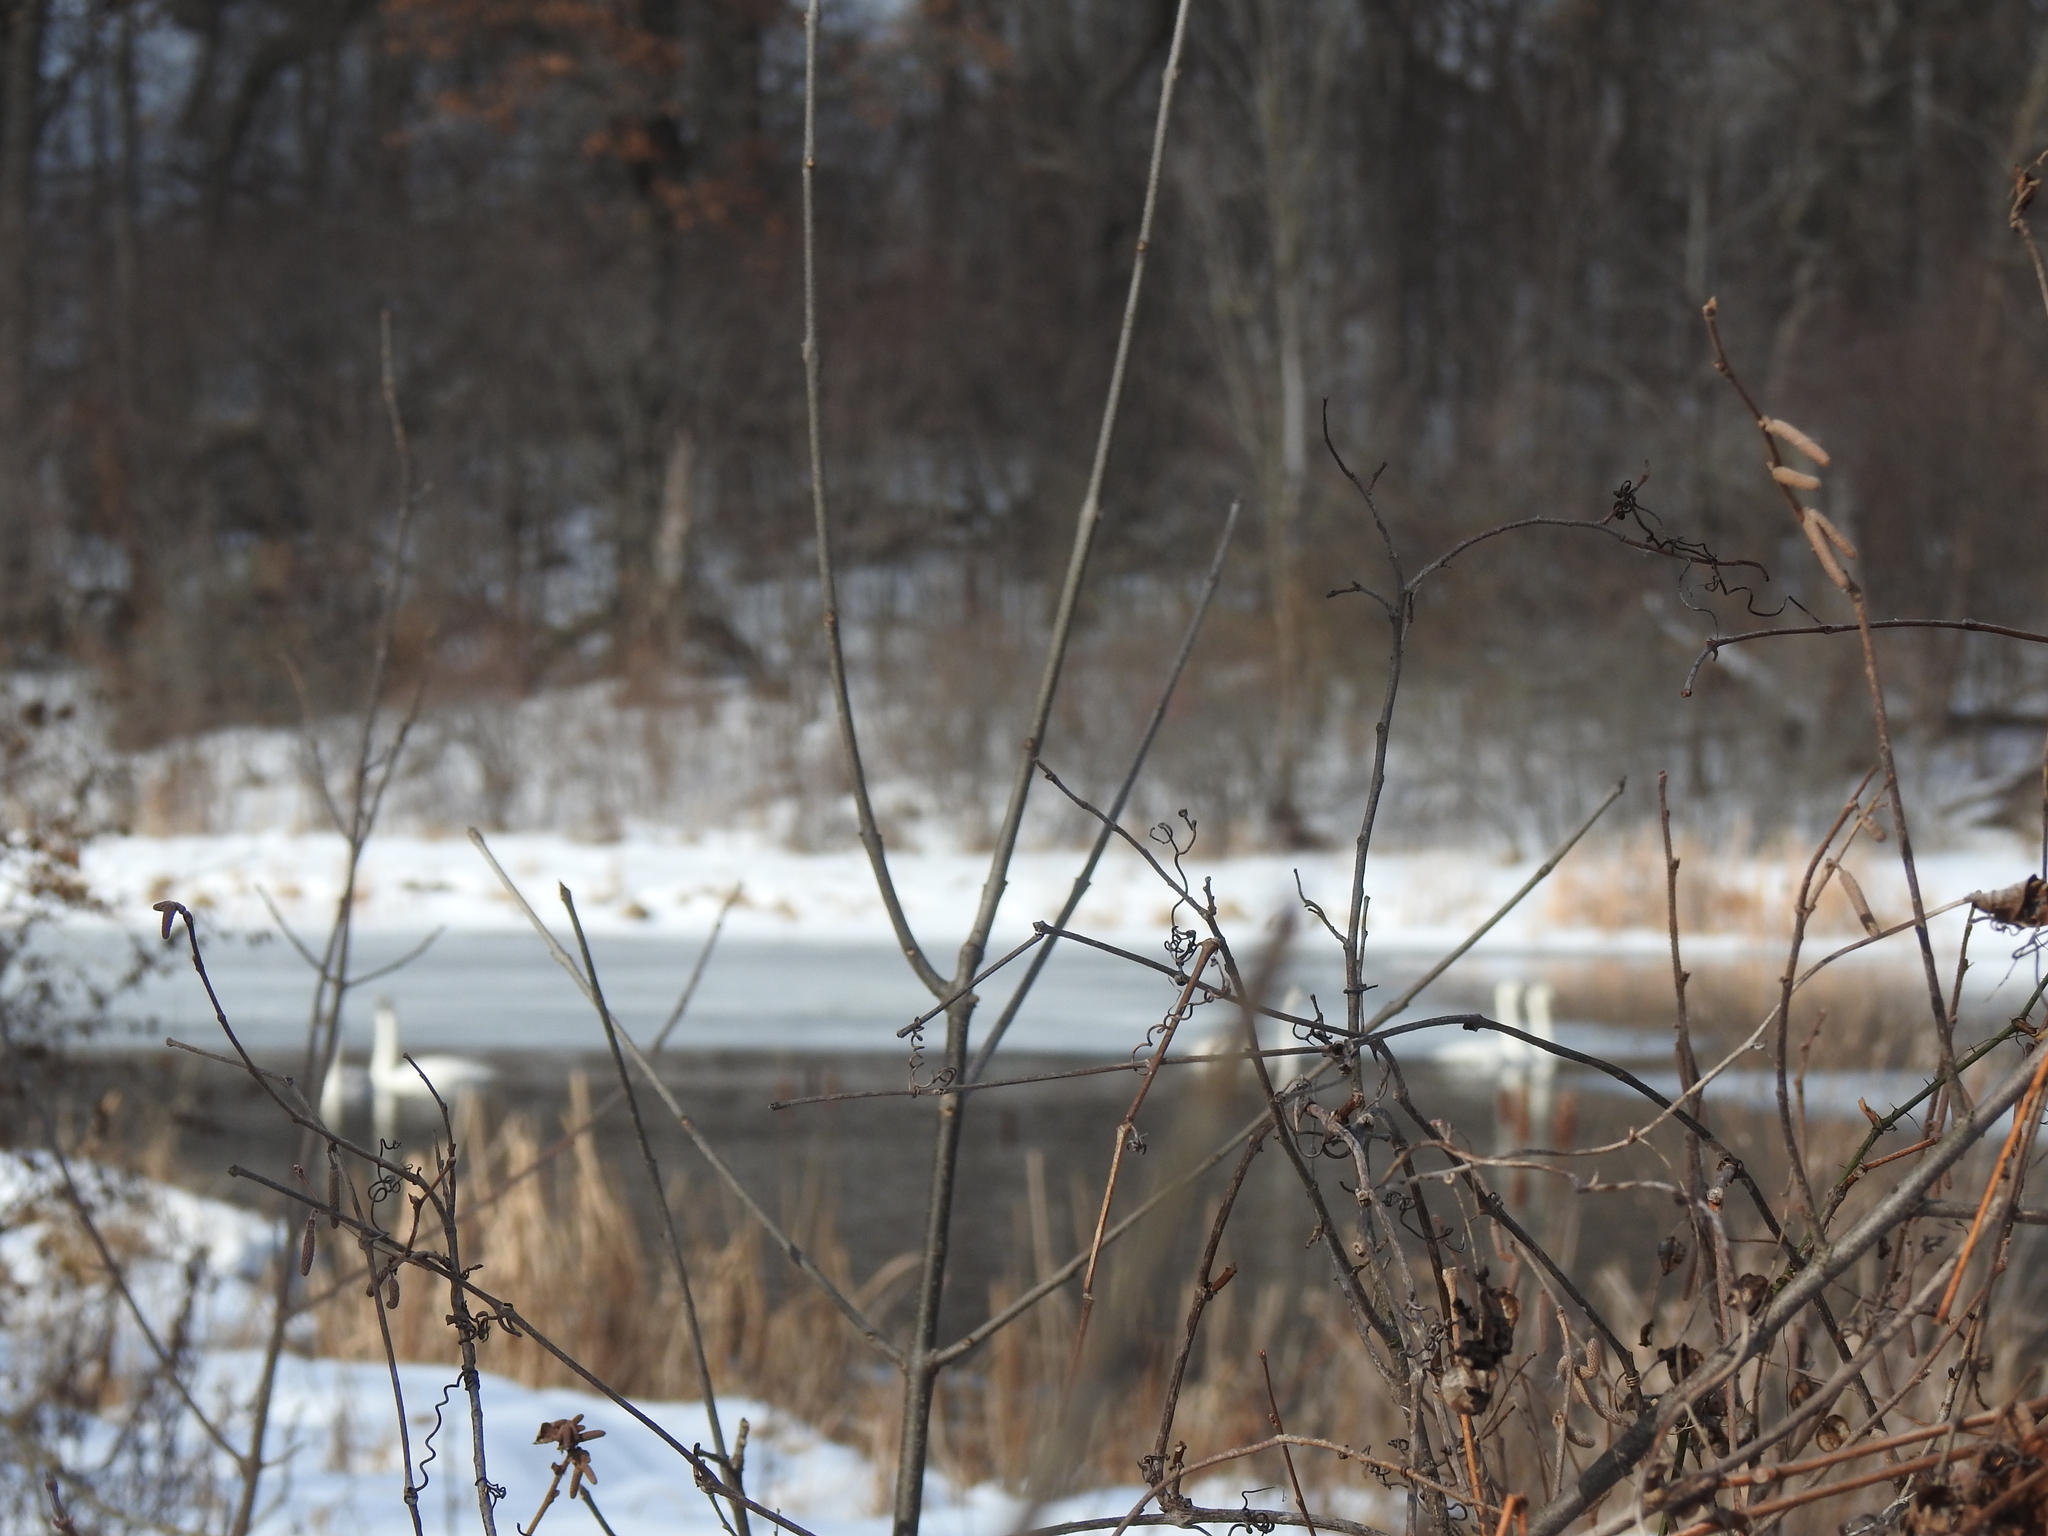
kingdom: Animalia
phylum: Chordata
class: Aves
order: Anseriformes
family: Anatidae
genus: Cygnus
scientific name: Cygnus buccinator
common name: Trumpeter swan
